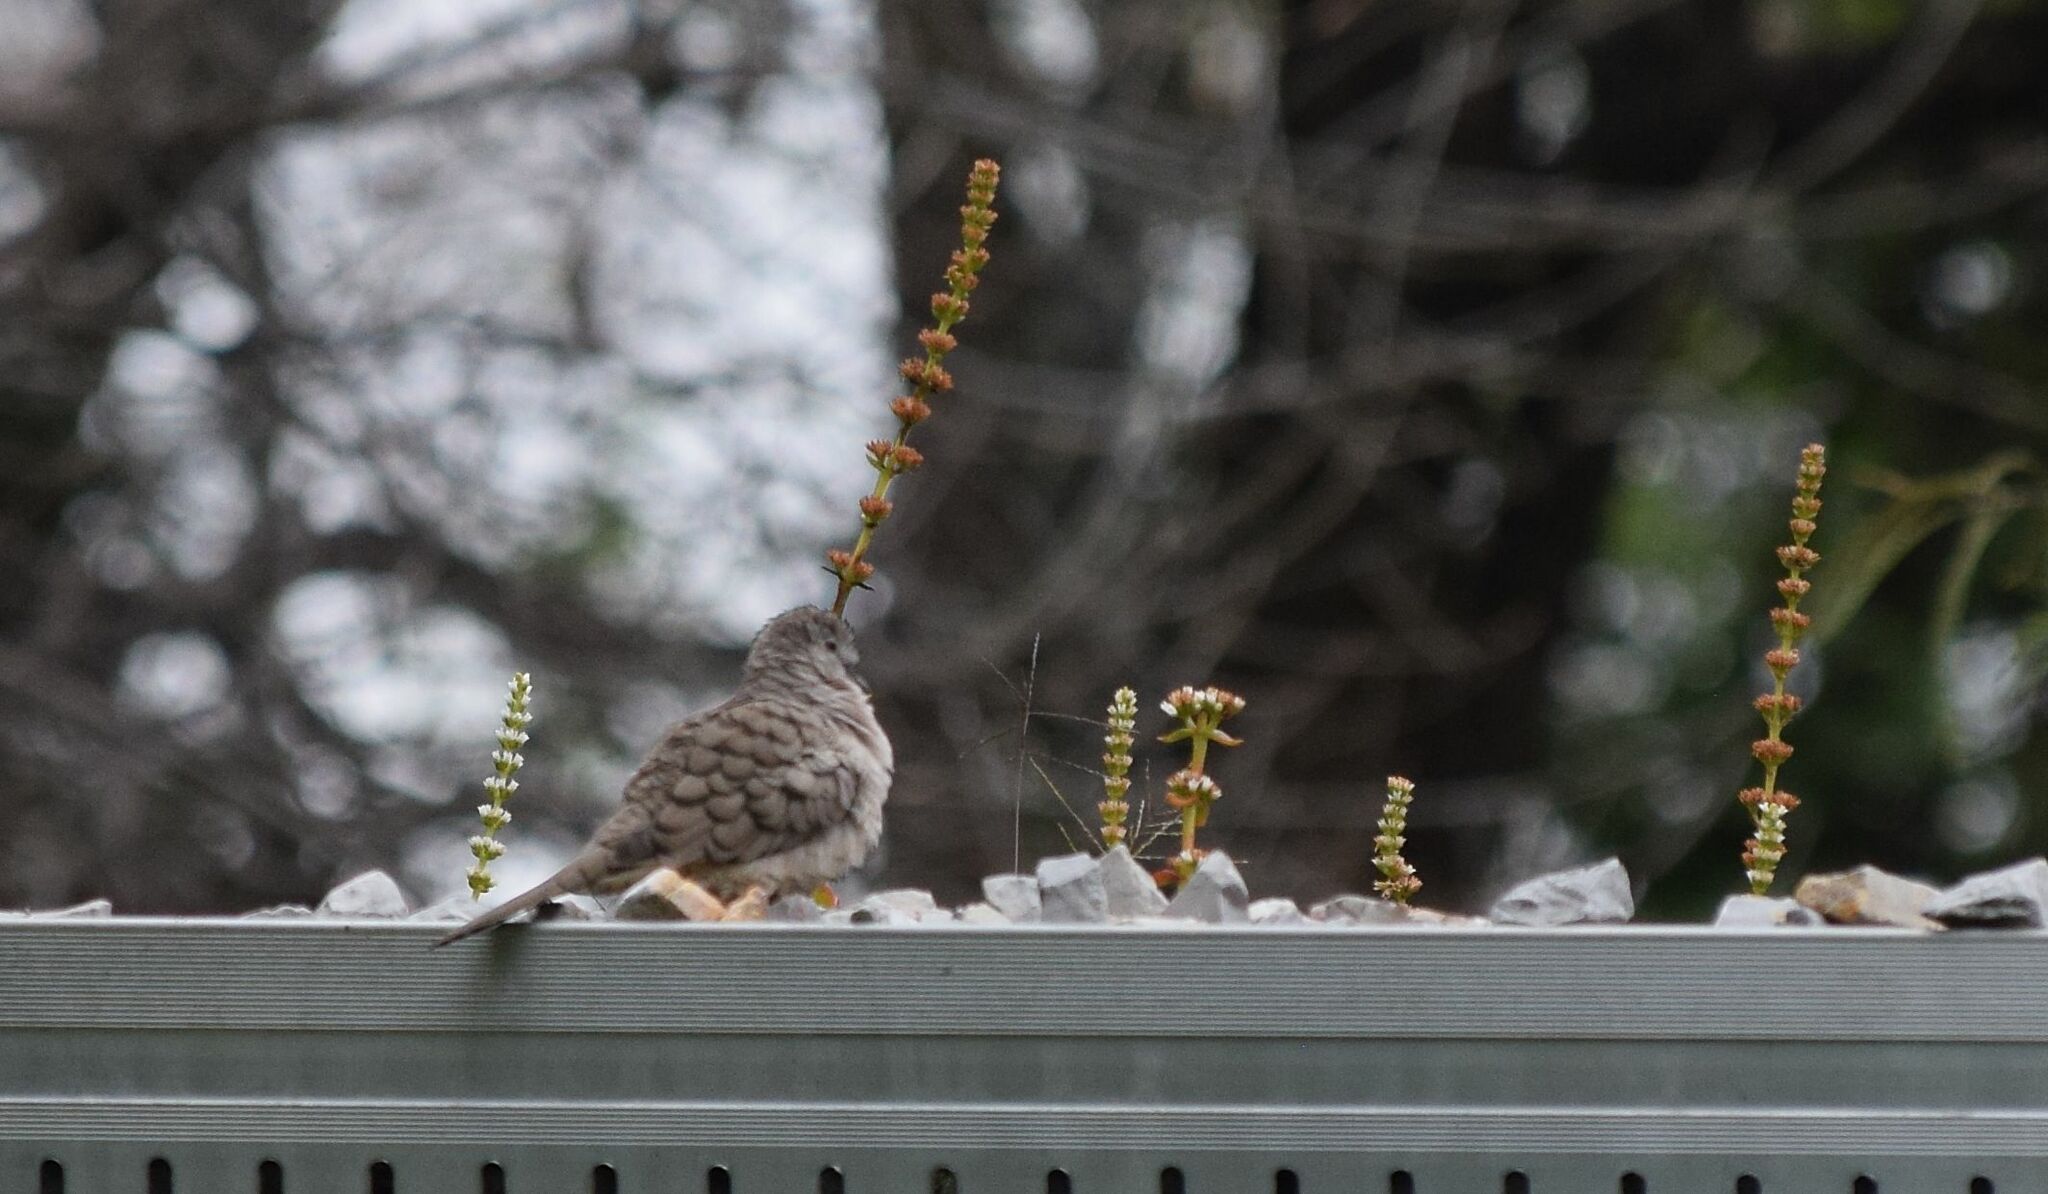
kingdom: Animalia
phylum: Chordata
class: Aves
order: Columbiformes
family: Columbidae
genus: Columbina
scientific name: Columbina inca
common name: Inca dove
